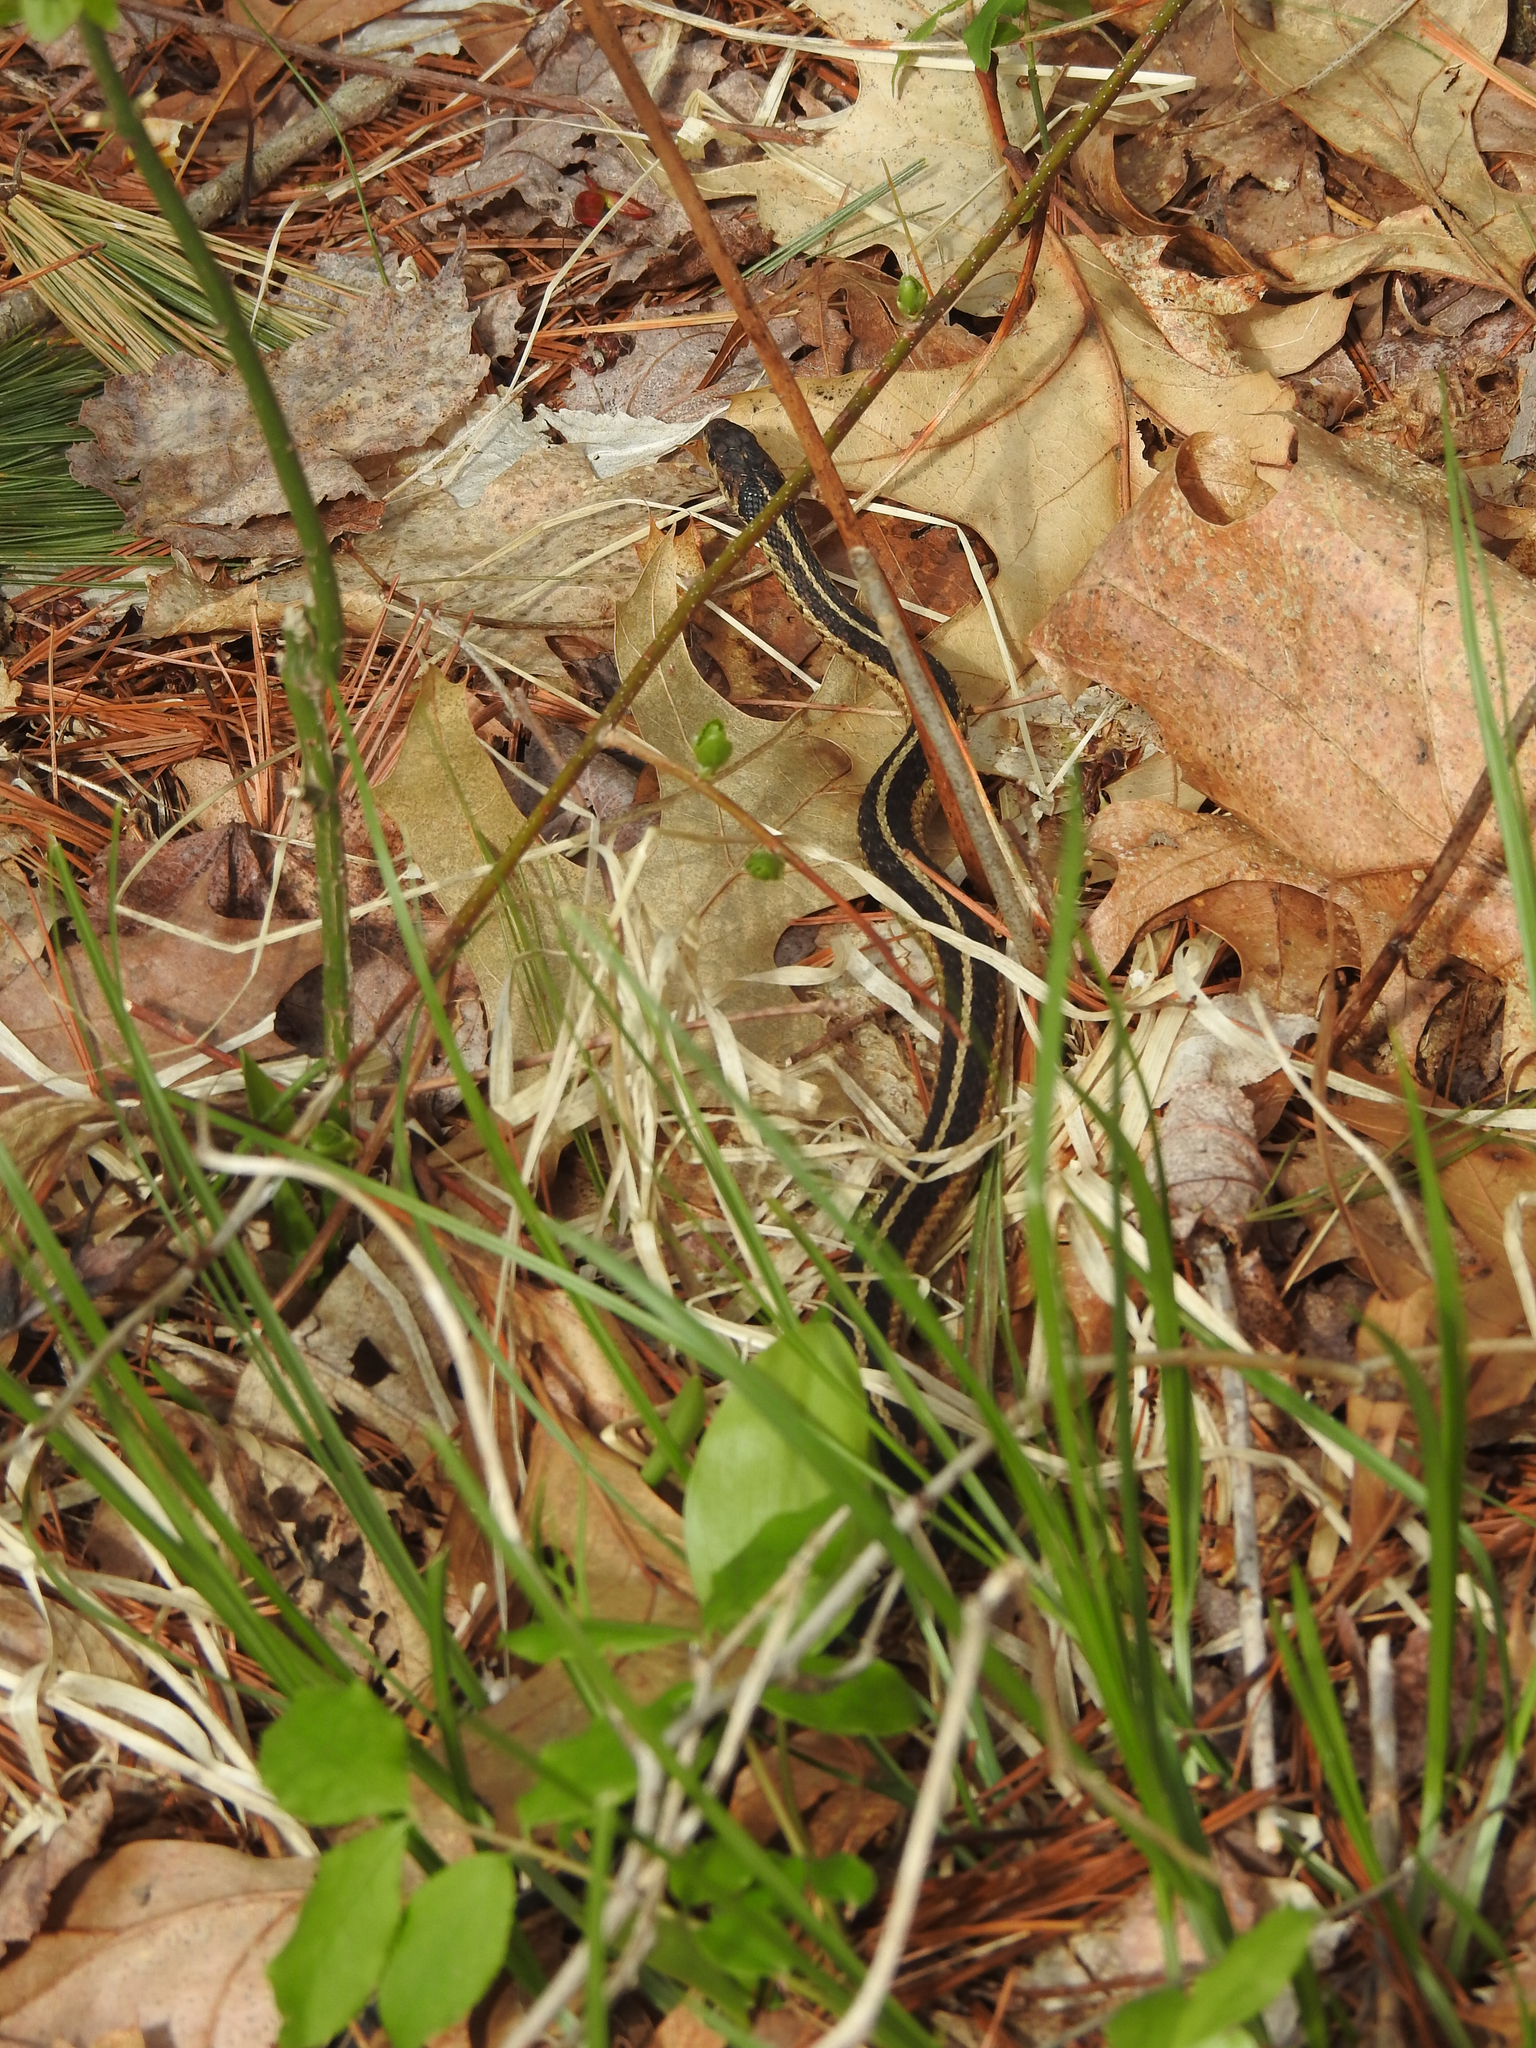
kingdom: Animalia
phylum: Chordata
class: Squamata
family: Colubridae
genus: Thamnophis
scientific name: Thamnophis sirtalis
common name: Common garter snake
